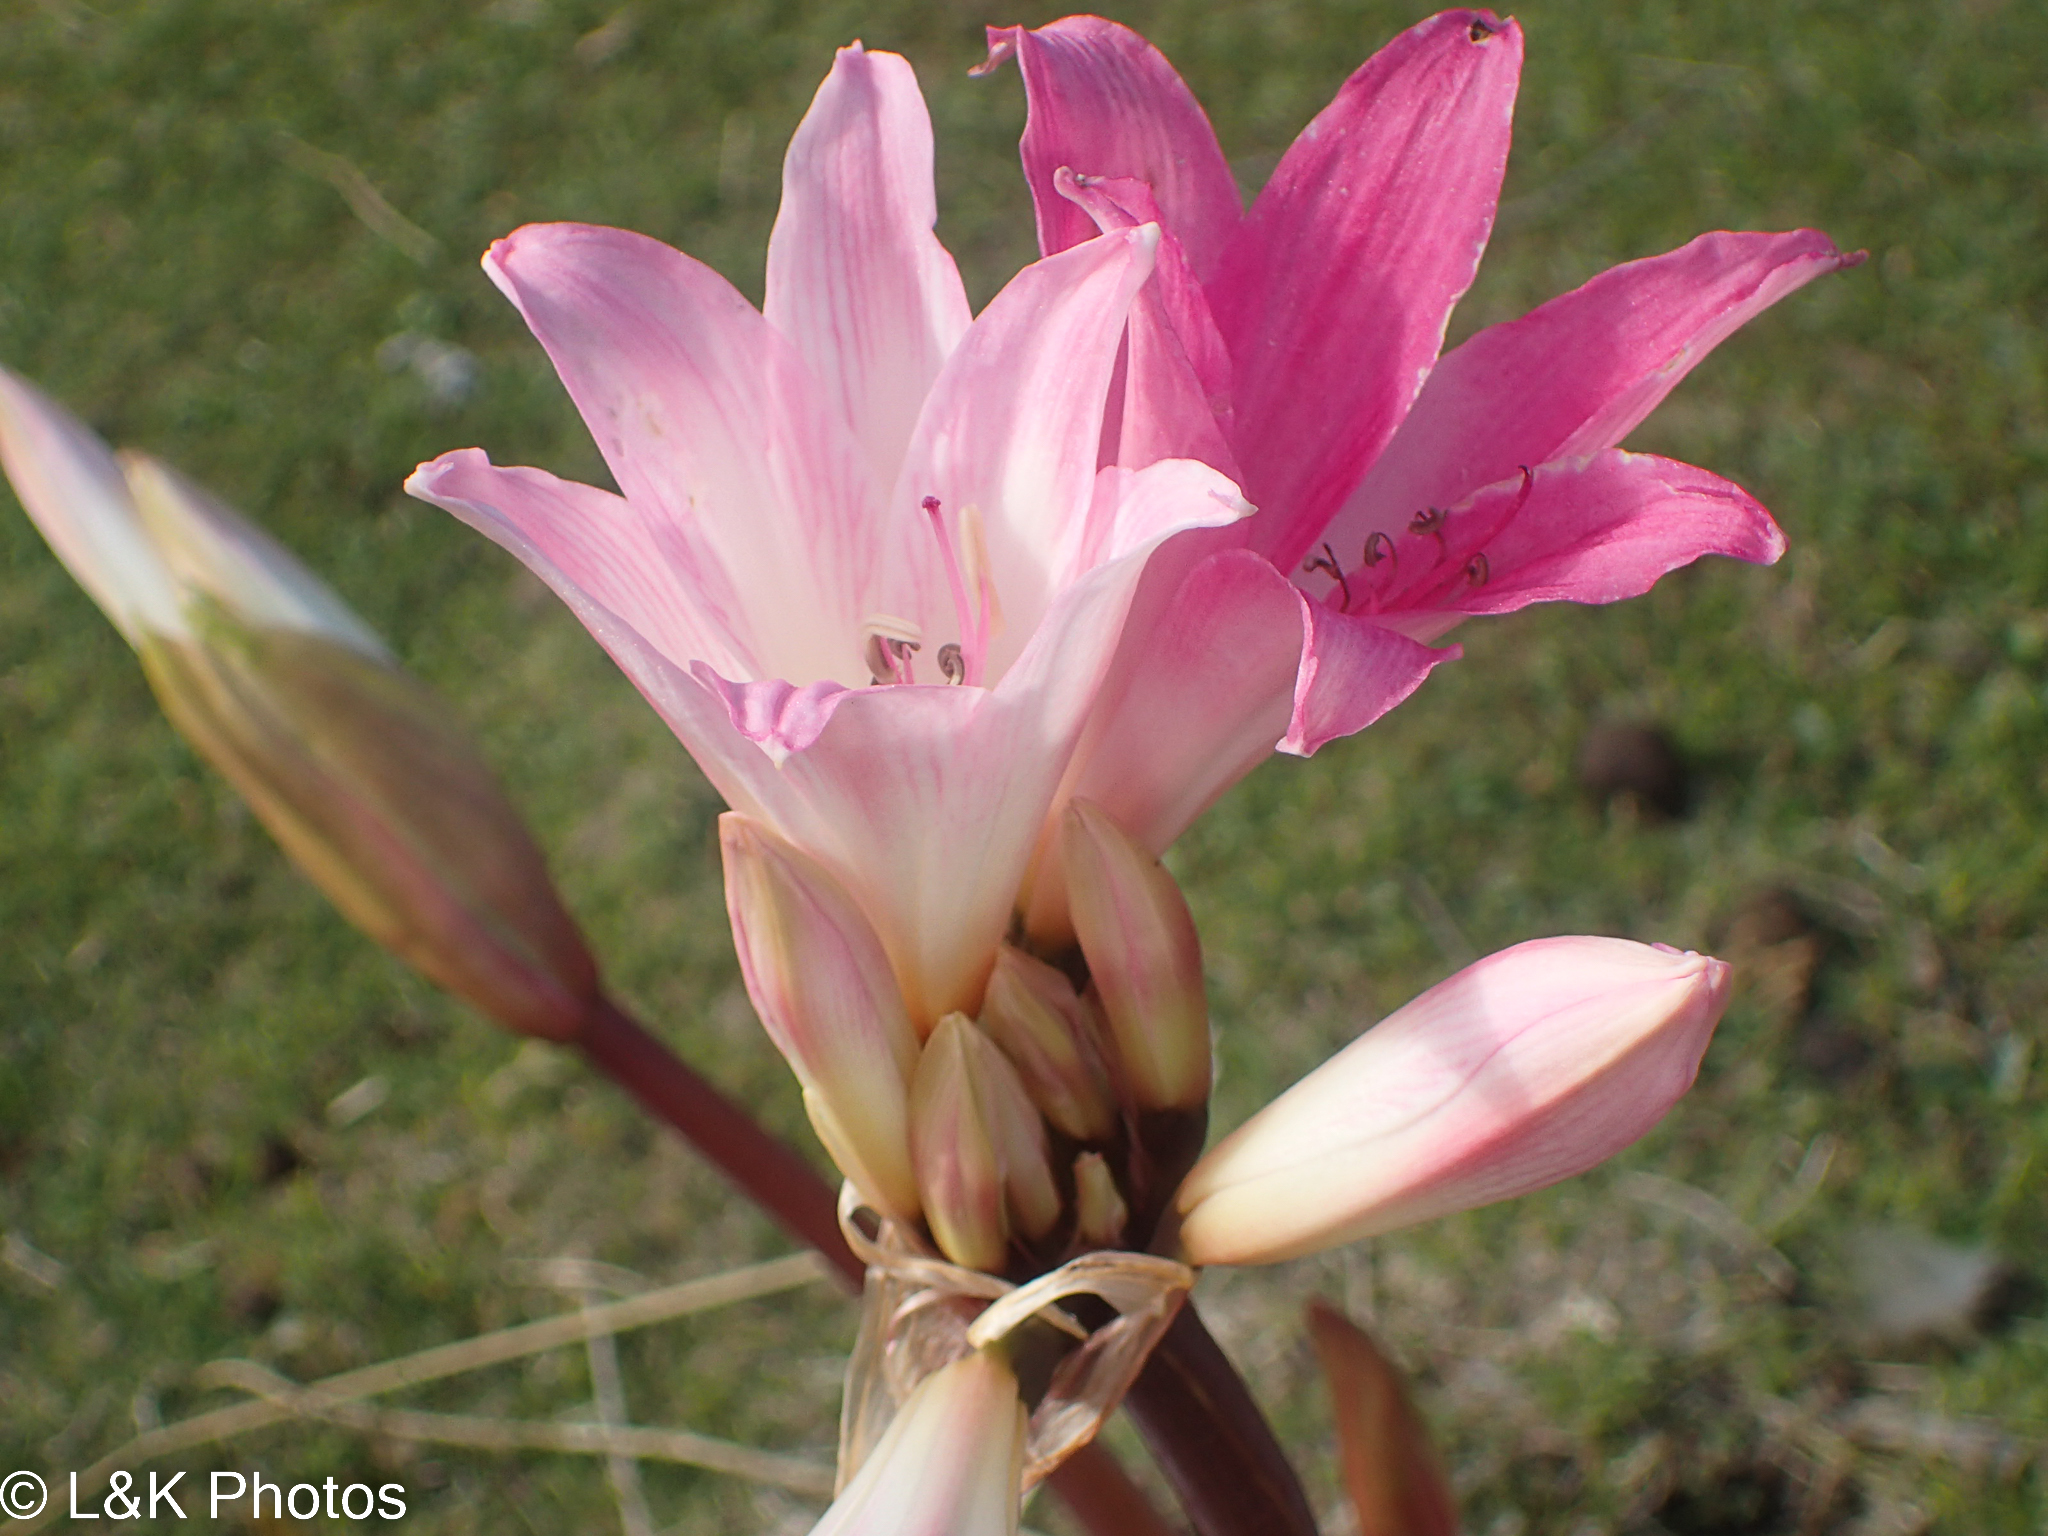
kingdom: Plantae
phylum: Tracheophyta
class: Liliopsida
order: Asparagales
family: Amaryllidaceae
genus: Amaryllis
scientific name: Amaryllis belladonna
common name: Jersey lily
